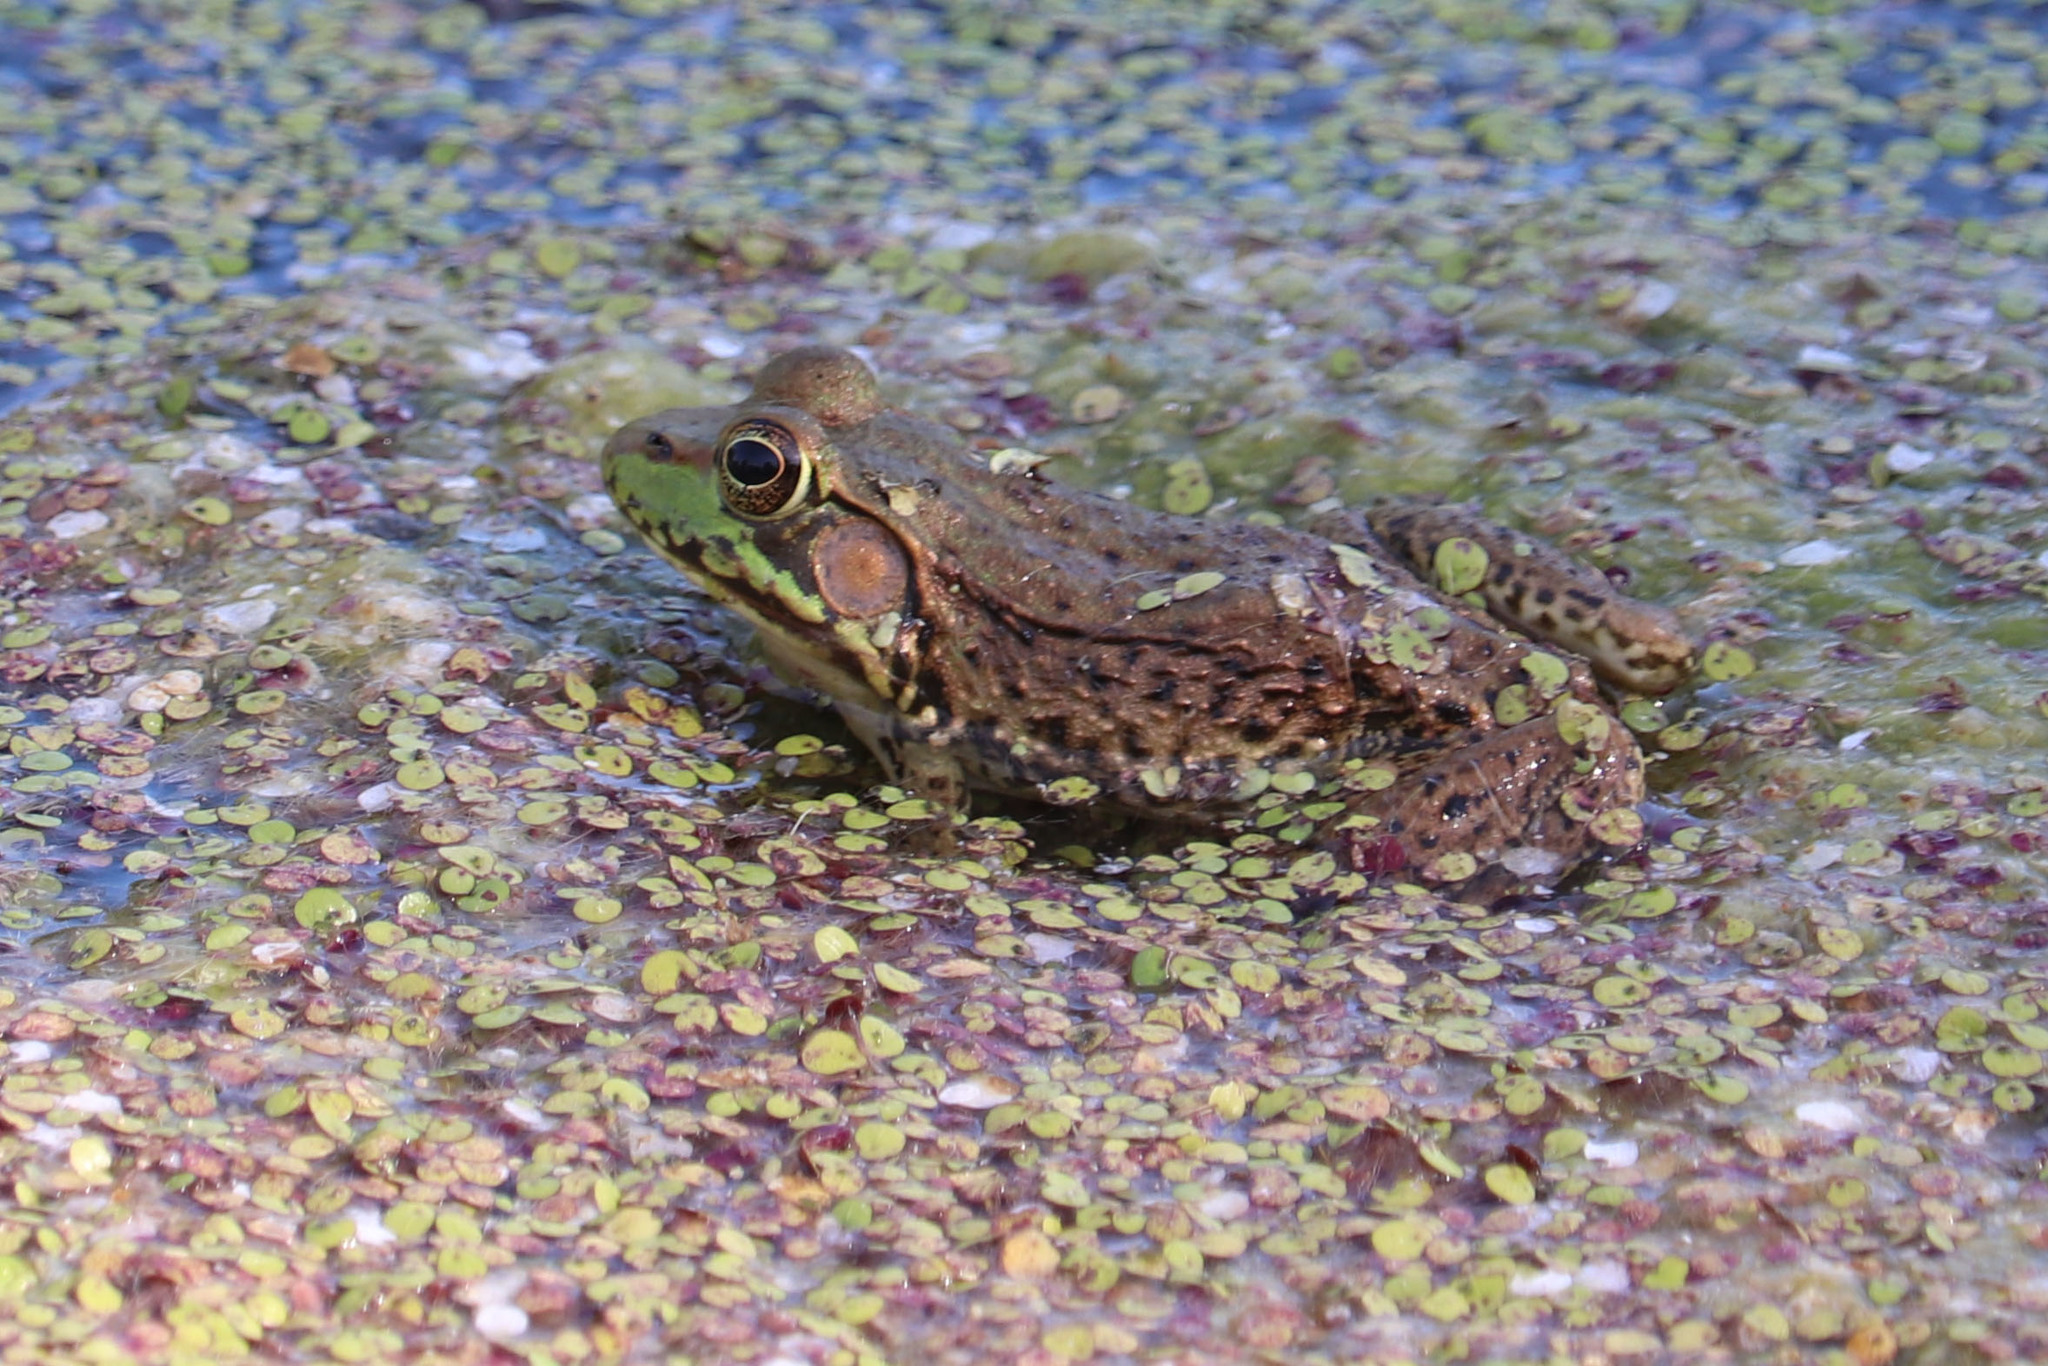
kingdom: Animalia
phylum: Chordata
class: Amphibia
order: Anura
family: Ranidae
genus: Lithobates
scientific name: Lithobates clamitans
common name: Green frog
